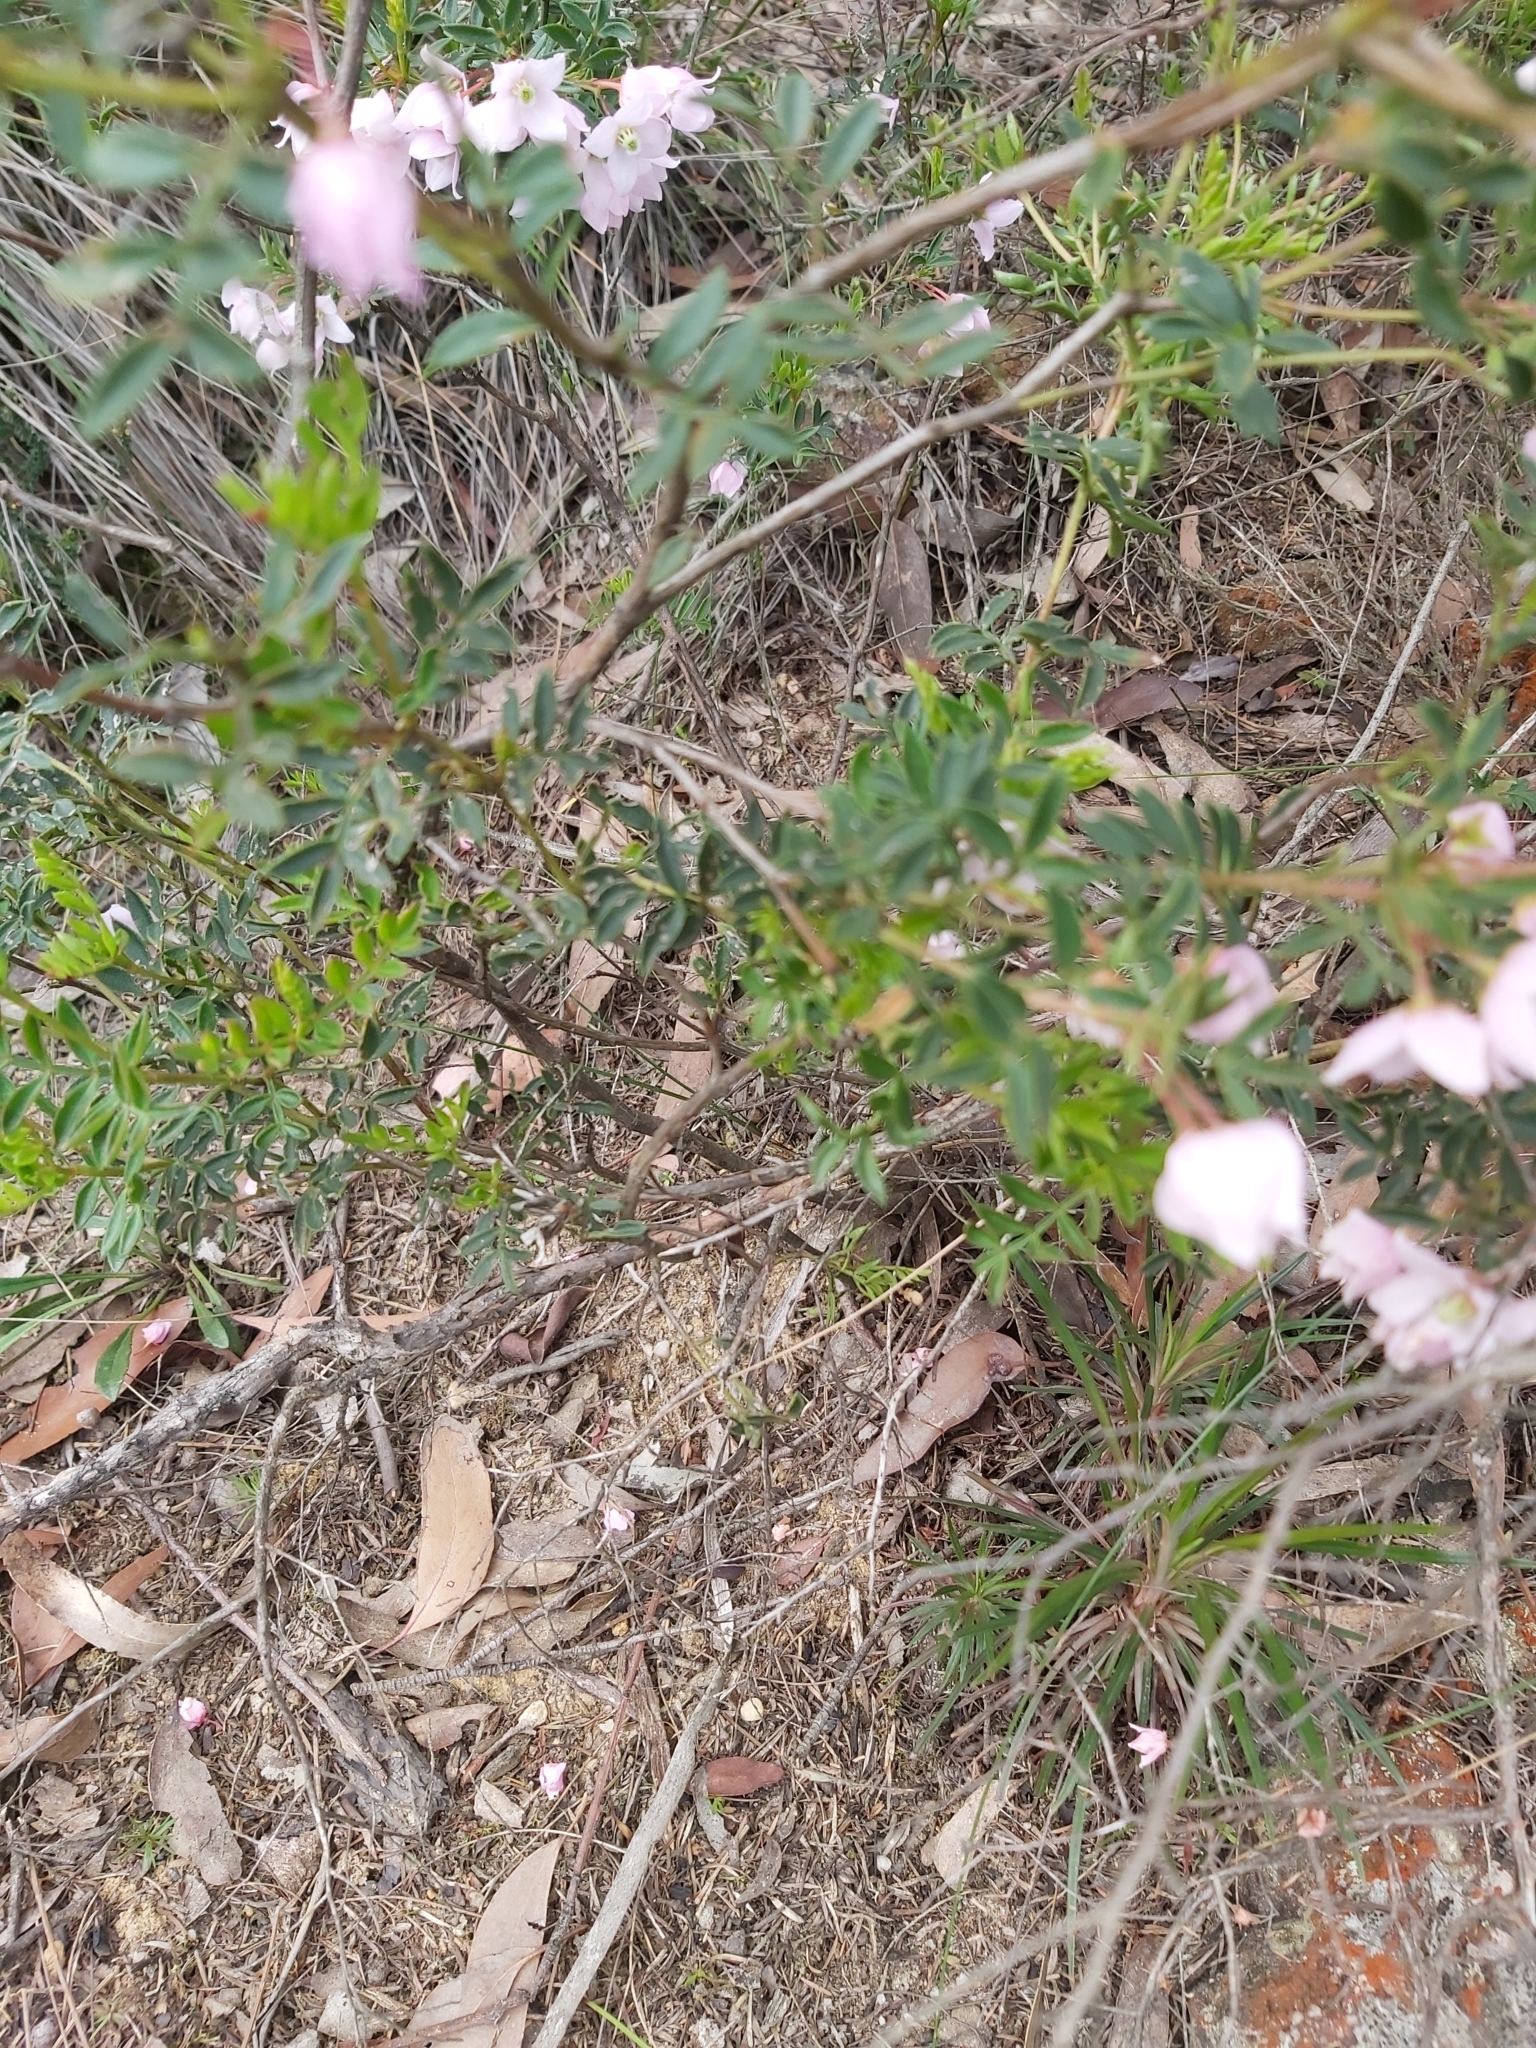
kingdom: Plantae
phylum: Tracheophyta
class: Magnoliopsida
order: Sapindales
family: Rutaceae
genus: Boronia
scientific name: Boronia floribunda
